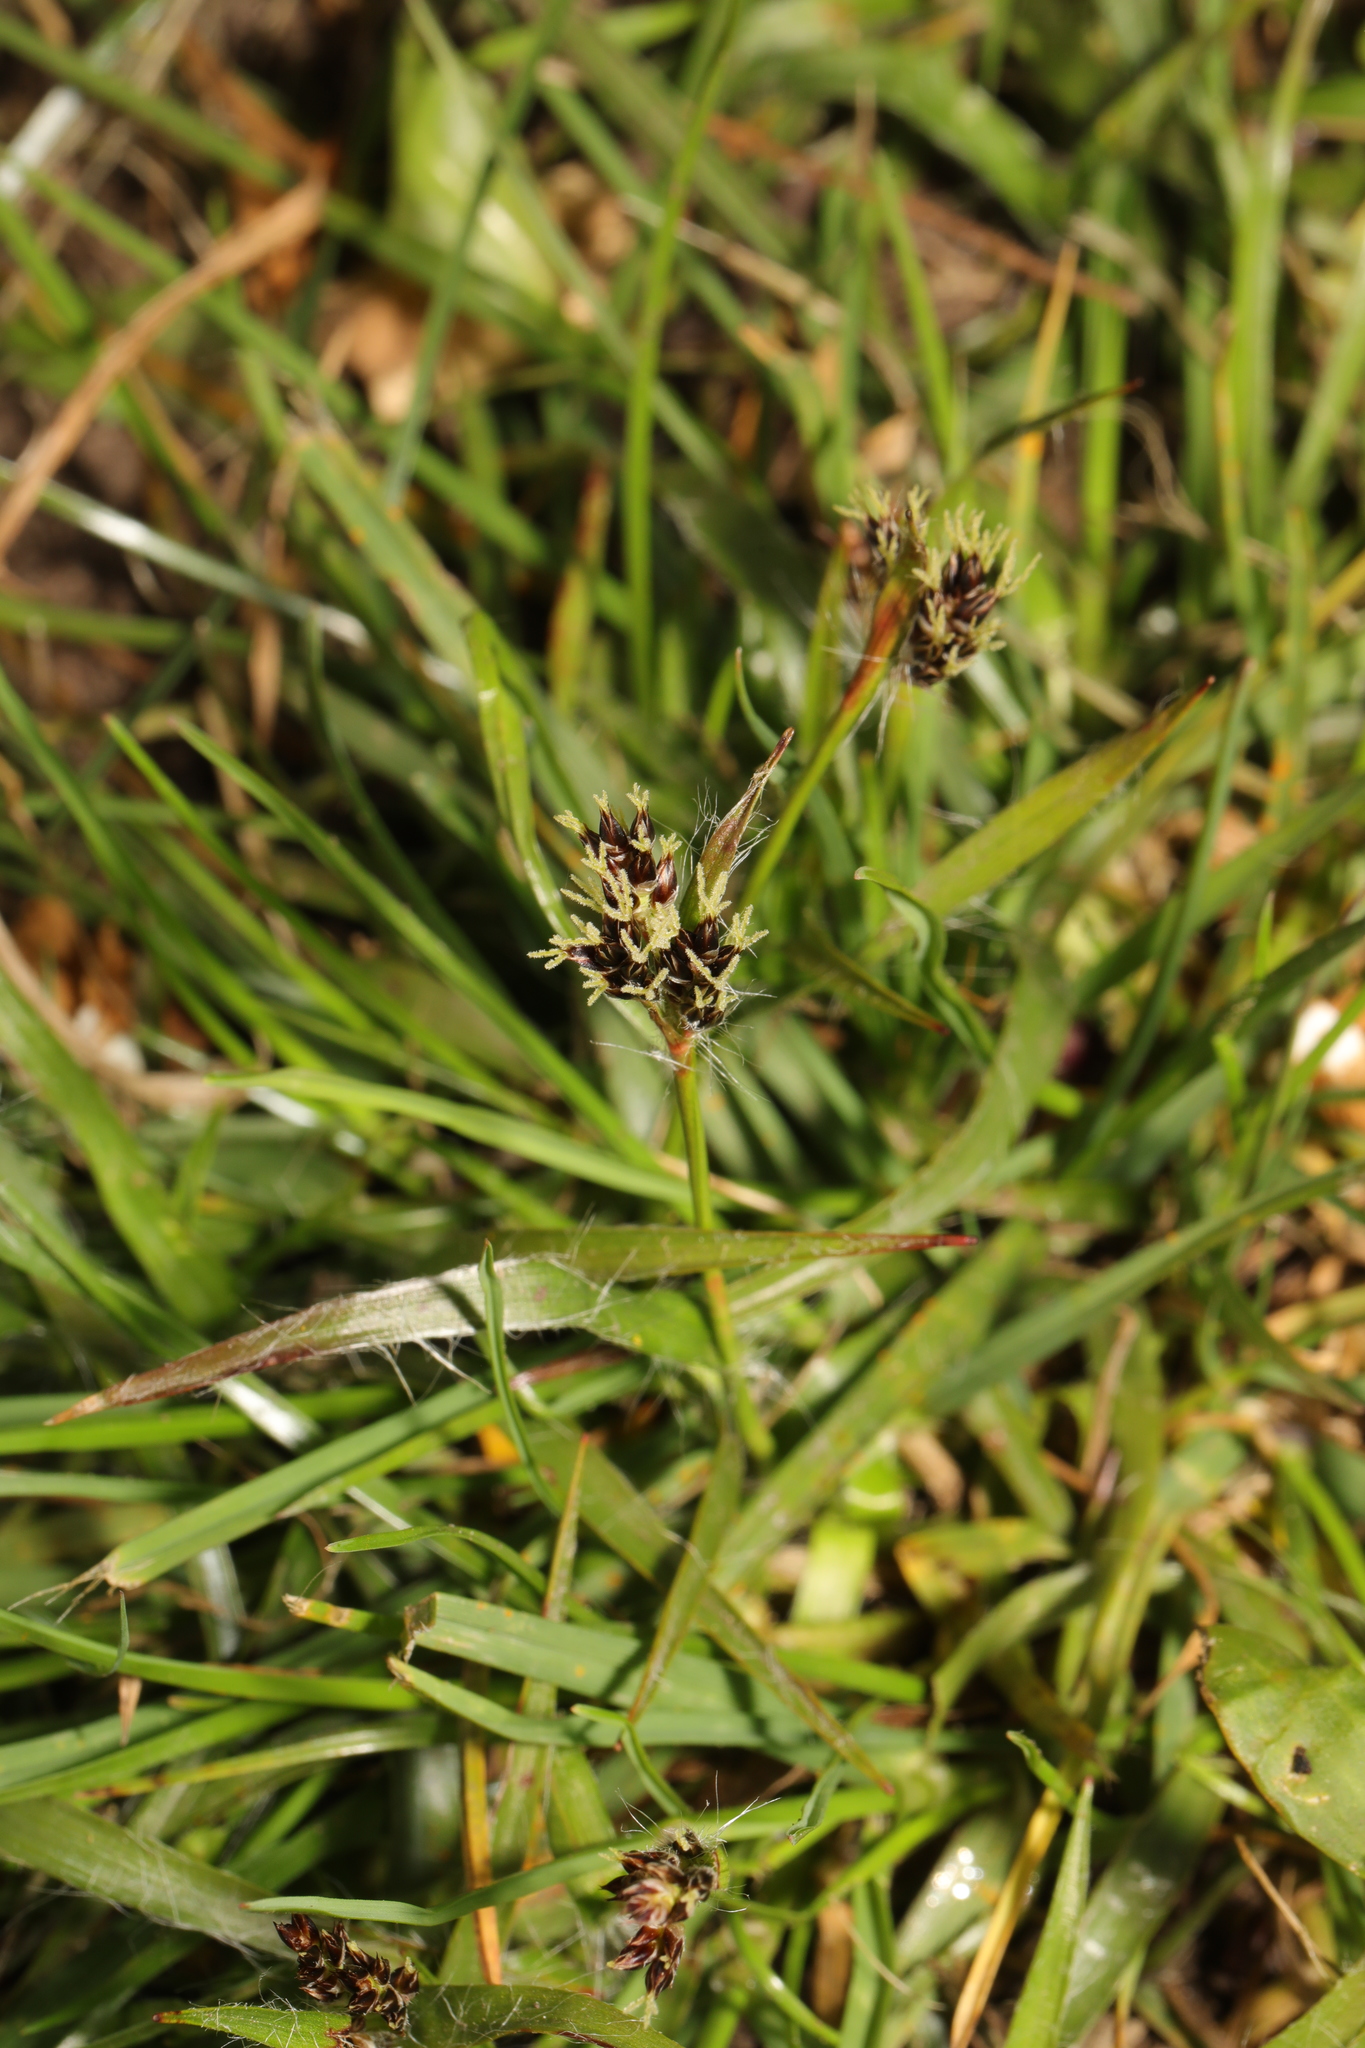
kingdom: Plantae
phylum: Tracheophyta
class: Liliopsida
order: Poales
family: Juncaceae
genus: Luzula
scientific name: Luzula campestris
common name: Field wood-rush
